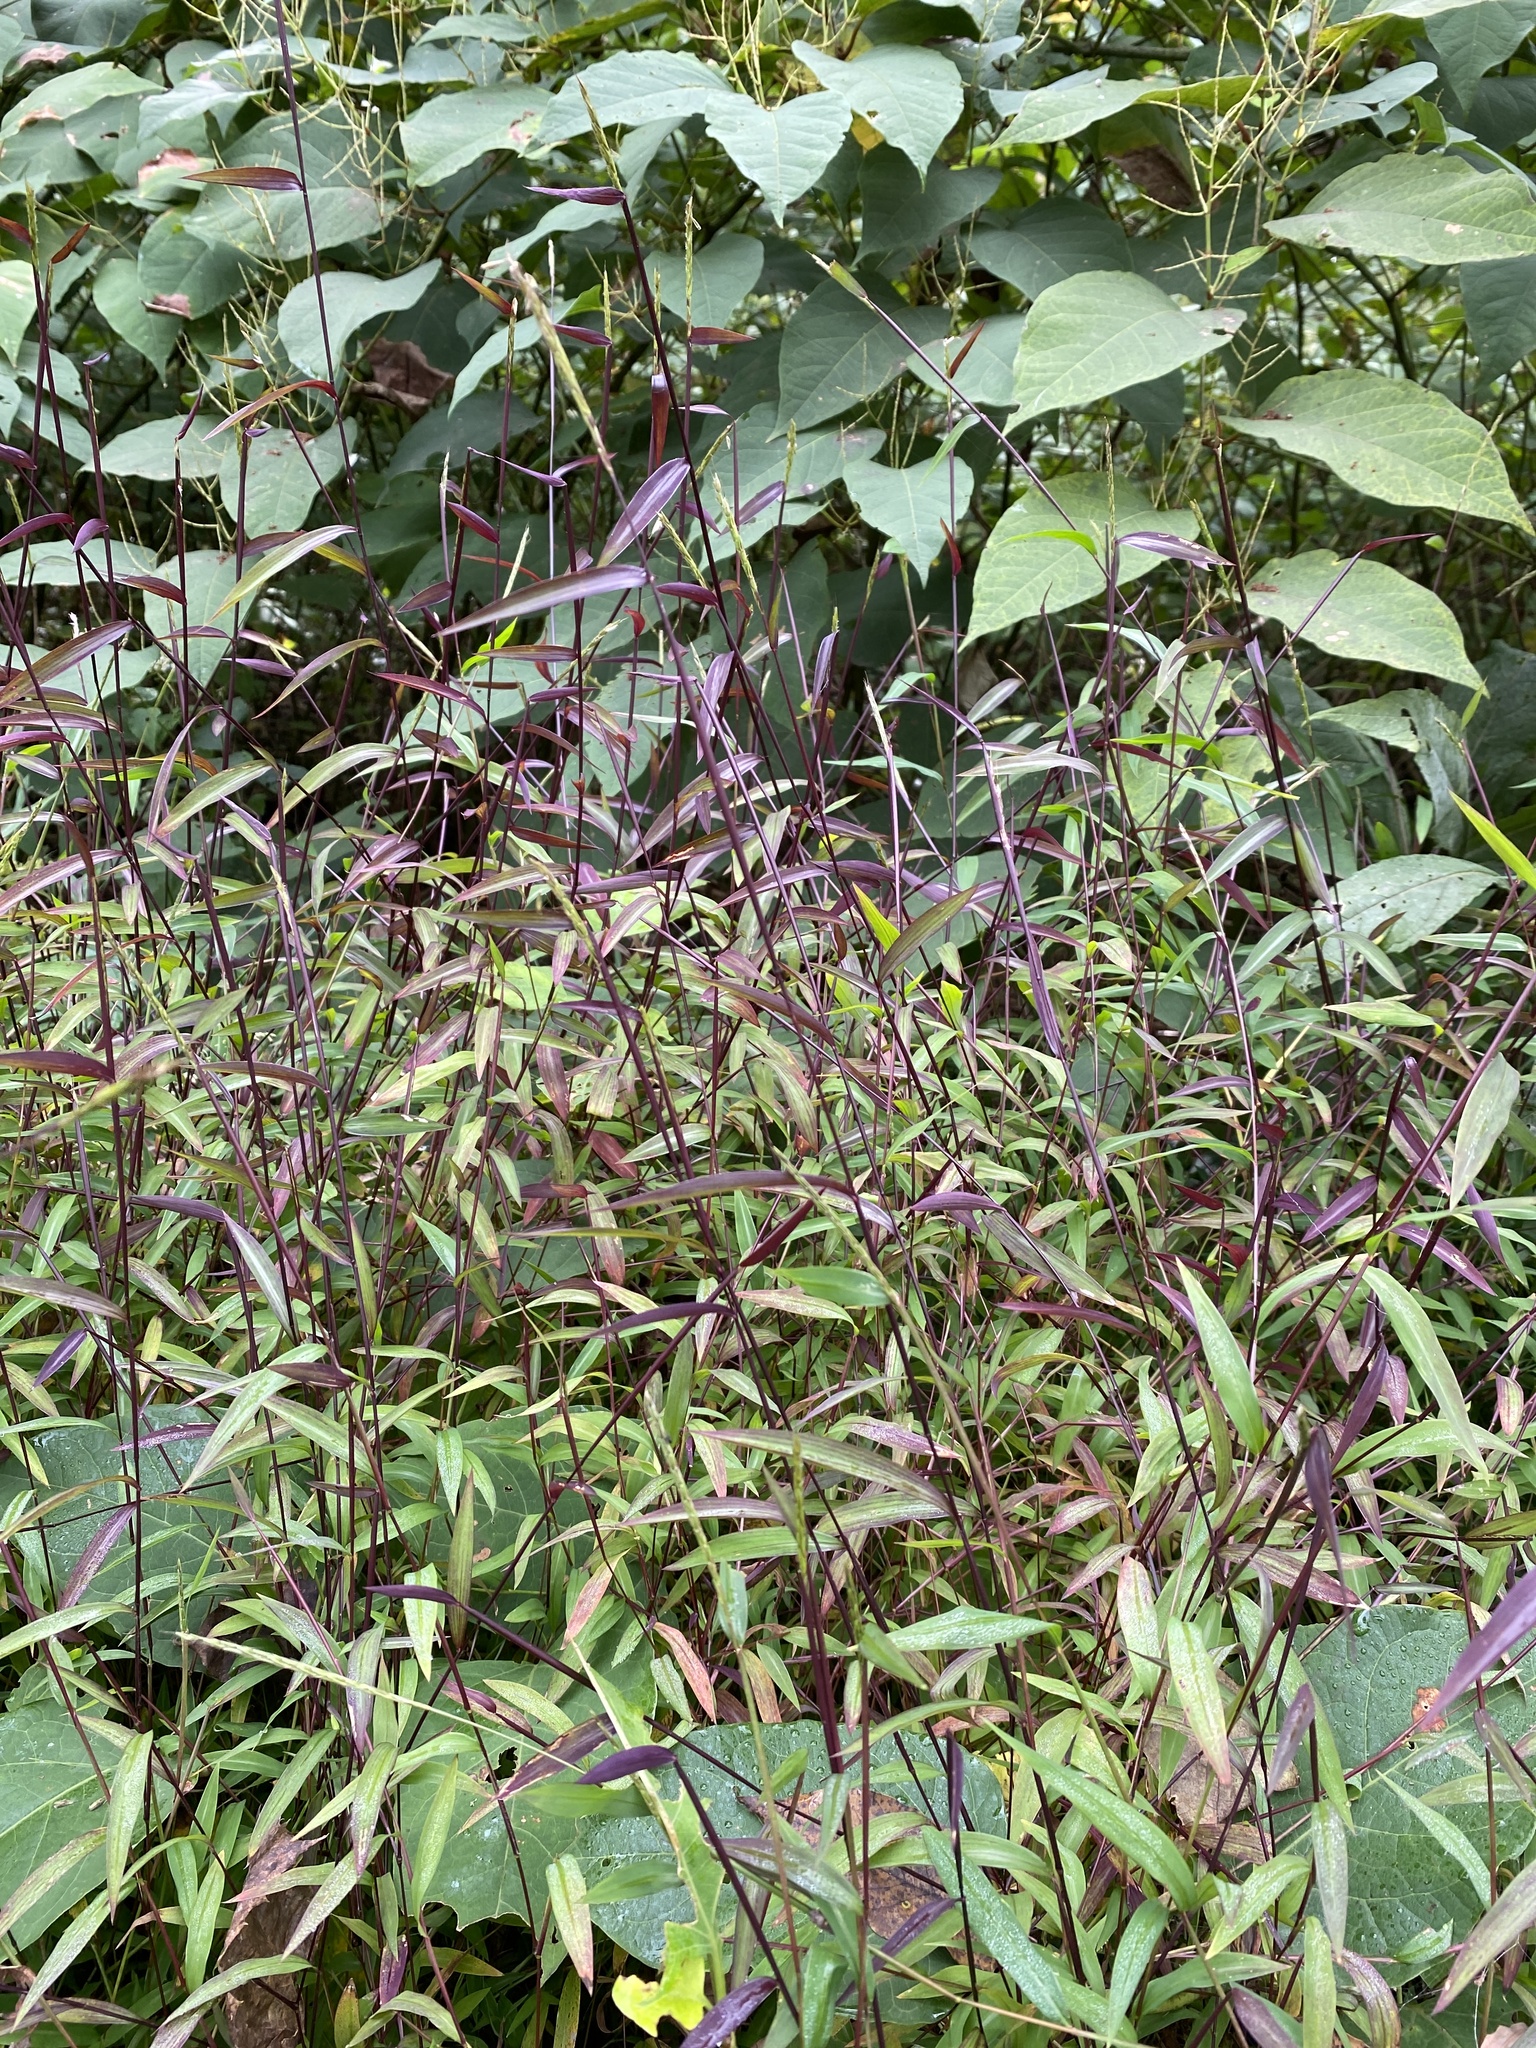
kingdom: Plantae
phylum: Tracheophyta
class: Liliopsida
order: Poales
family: Poaceae
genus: Microstegium
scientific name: Microstegium vimineum
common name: Japanese stiltgrass
